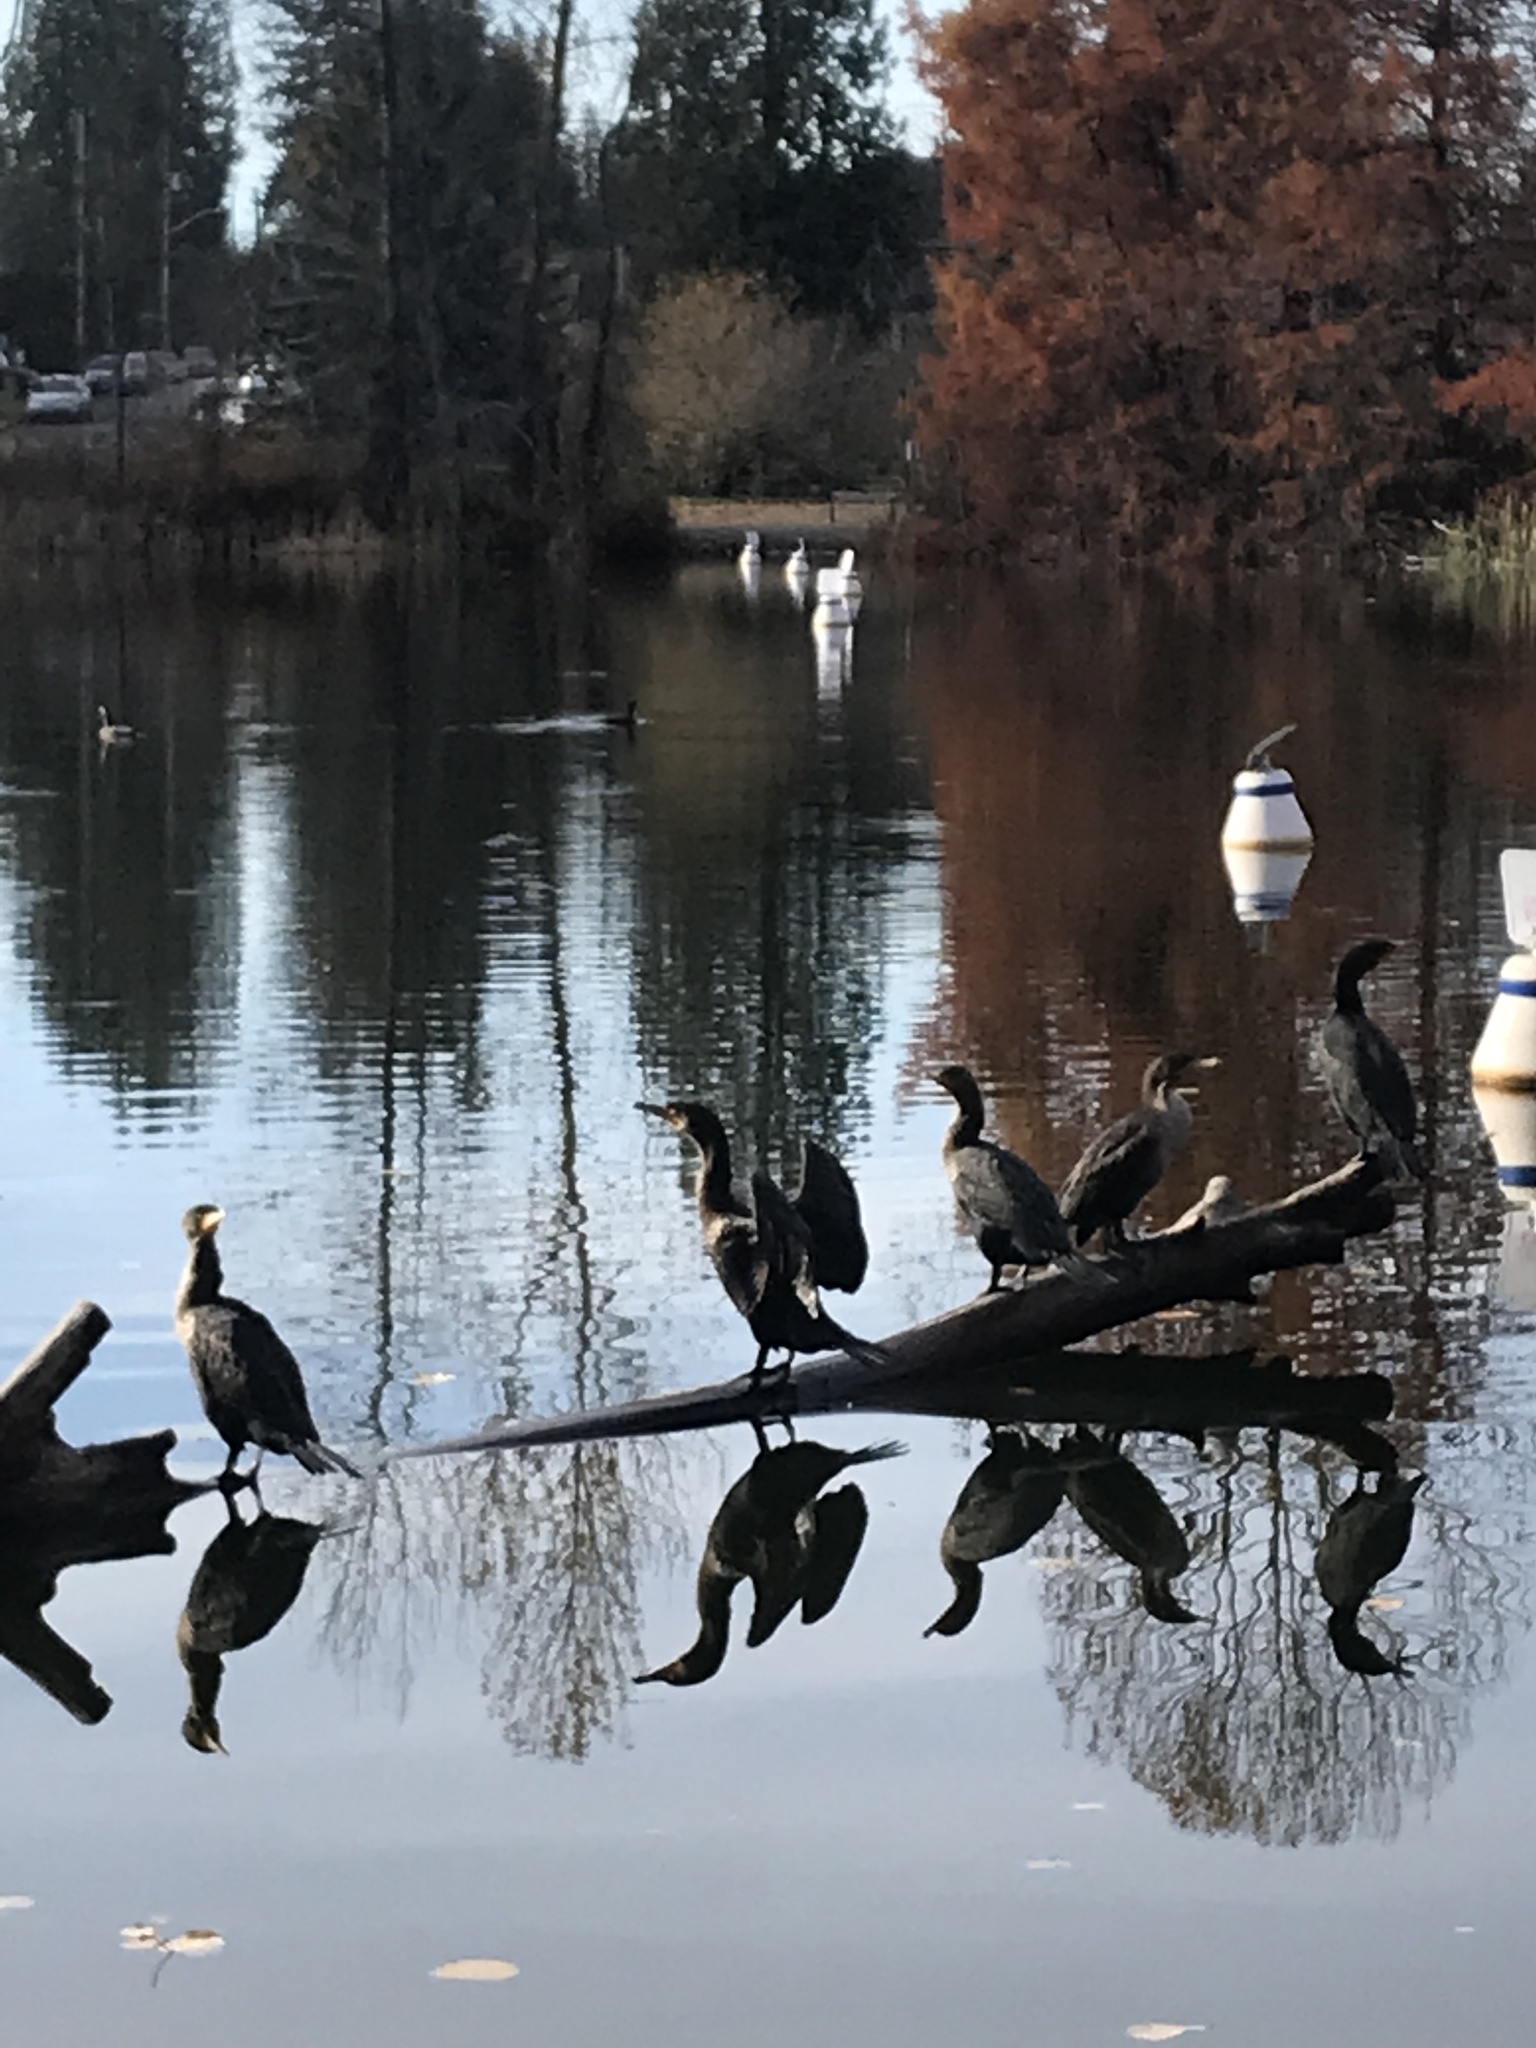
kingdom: Animalia
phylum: Chordata
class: Aves
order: Suliformes
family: Phalacrocoracidae
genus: Phalacrocorax
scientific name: Phalacrocorax auritus
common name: Double-crested cormorant
